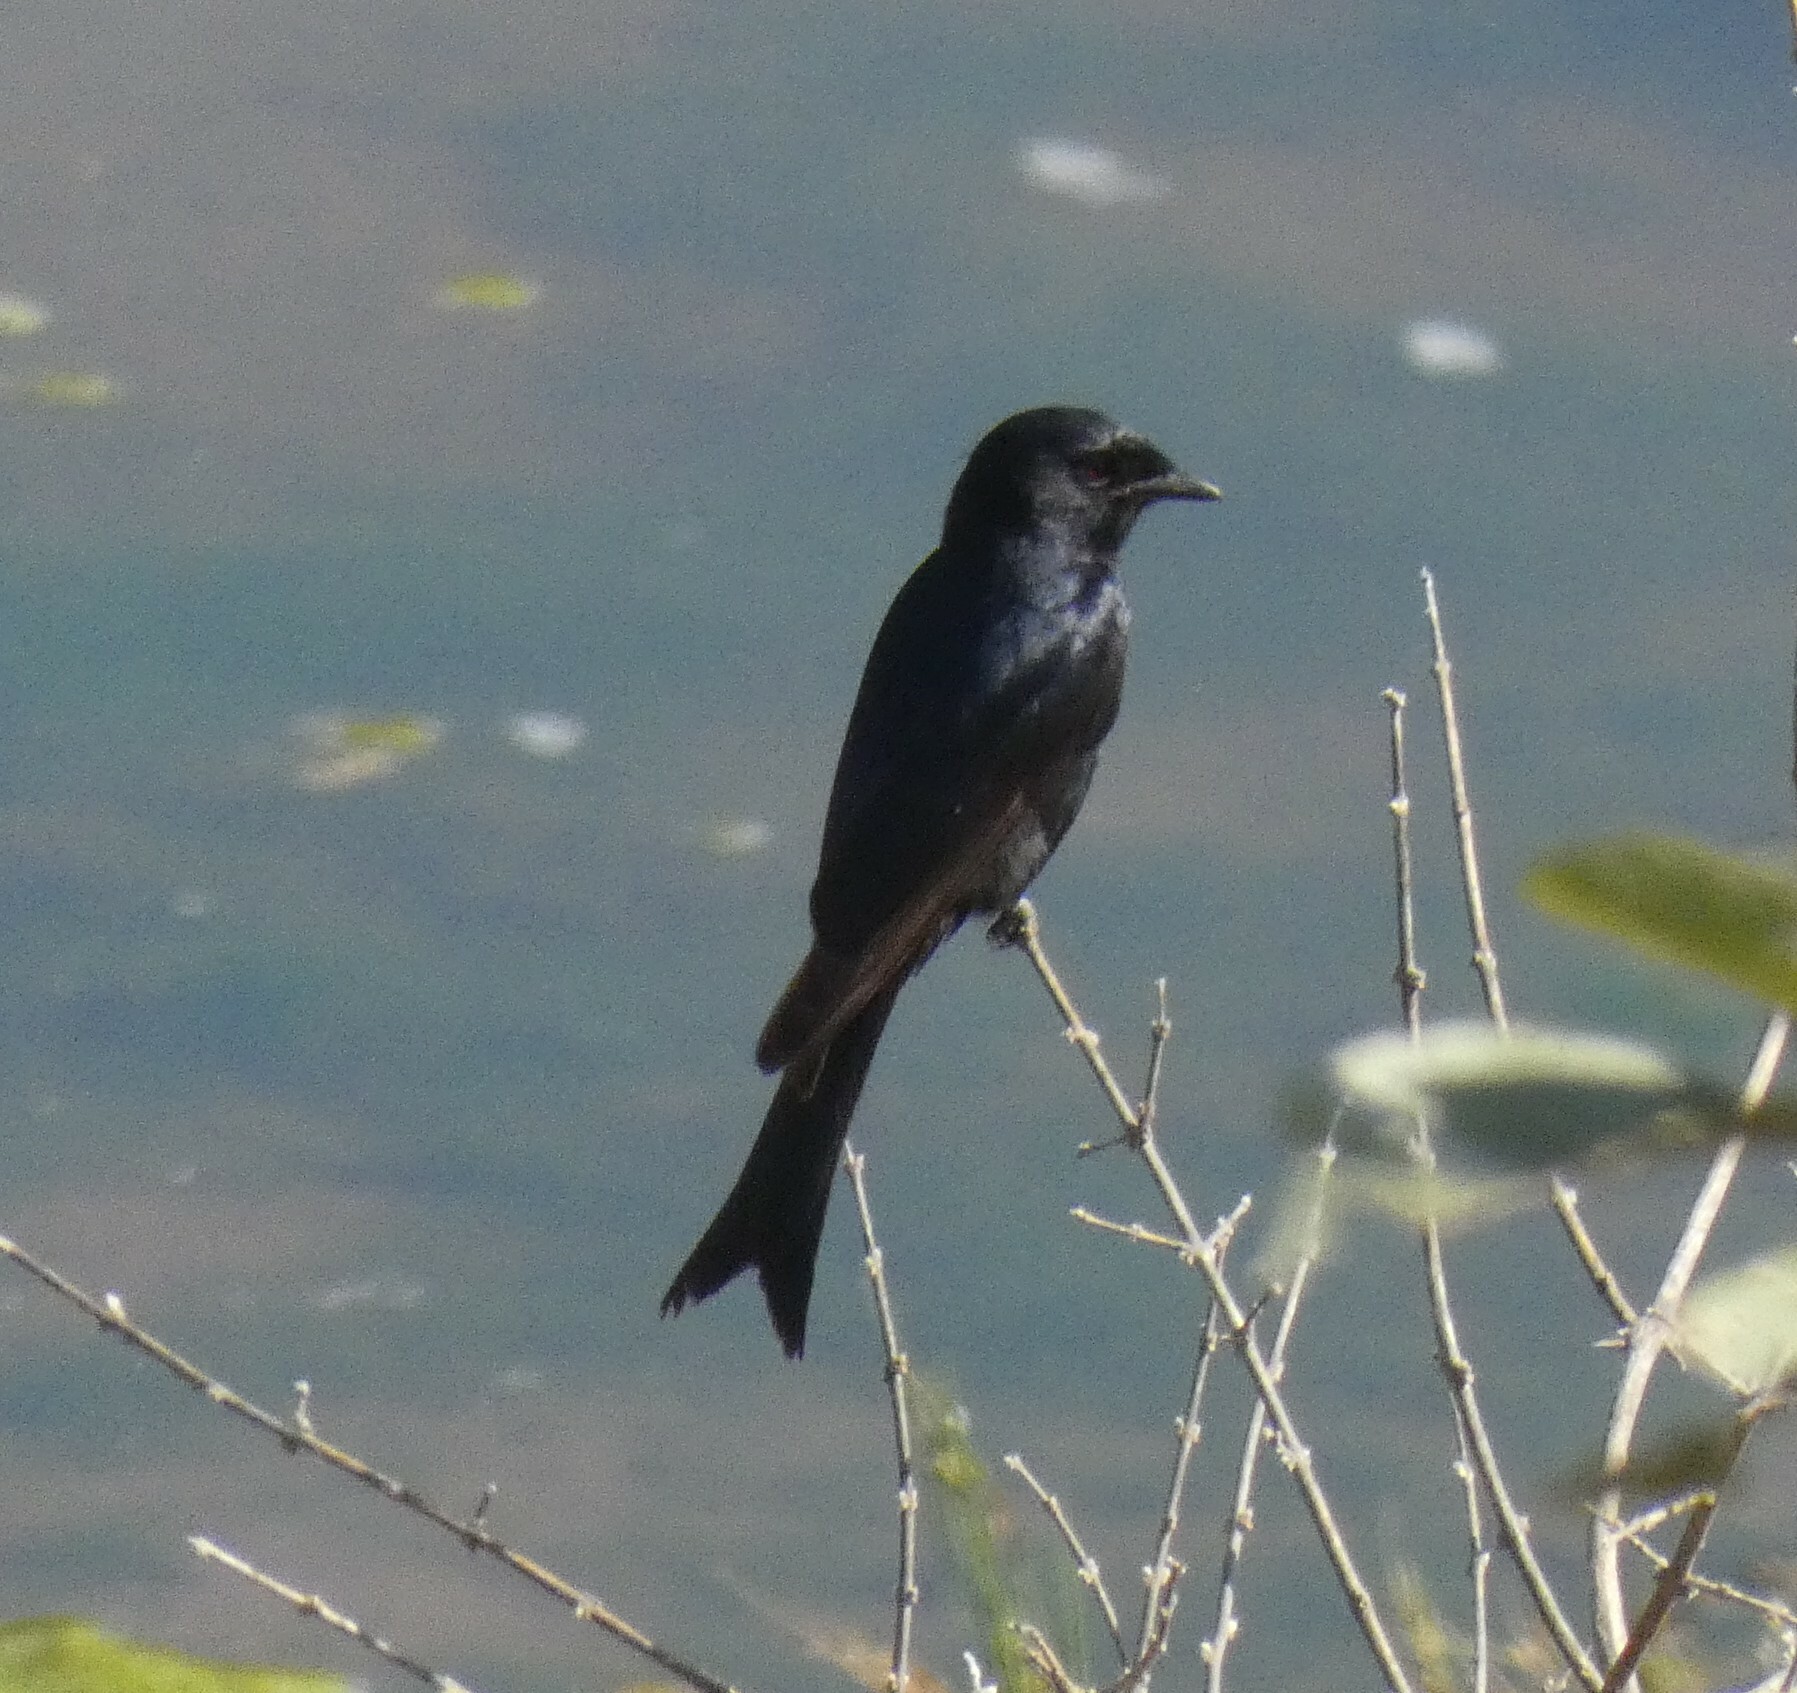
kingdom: Animalia
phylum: Chordata
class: Aves
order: Passeriformes
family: Dicruridae
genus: Dicrurus
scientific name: Dicrurus adsimilis
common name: Fork-tailed drongo
